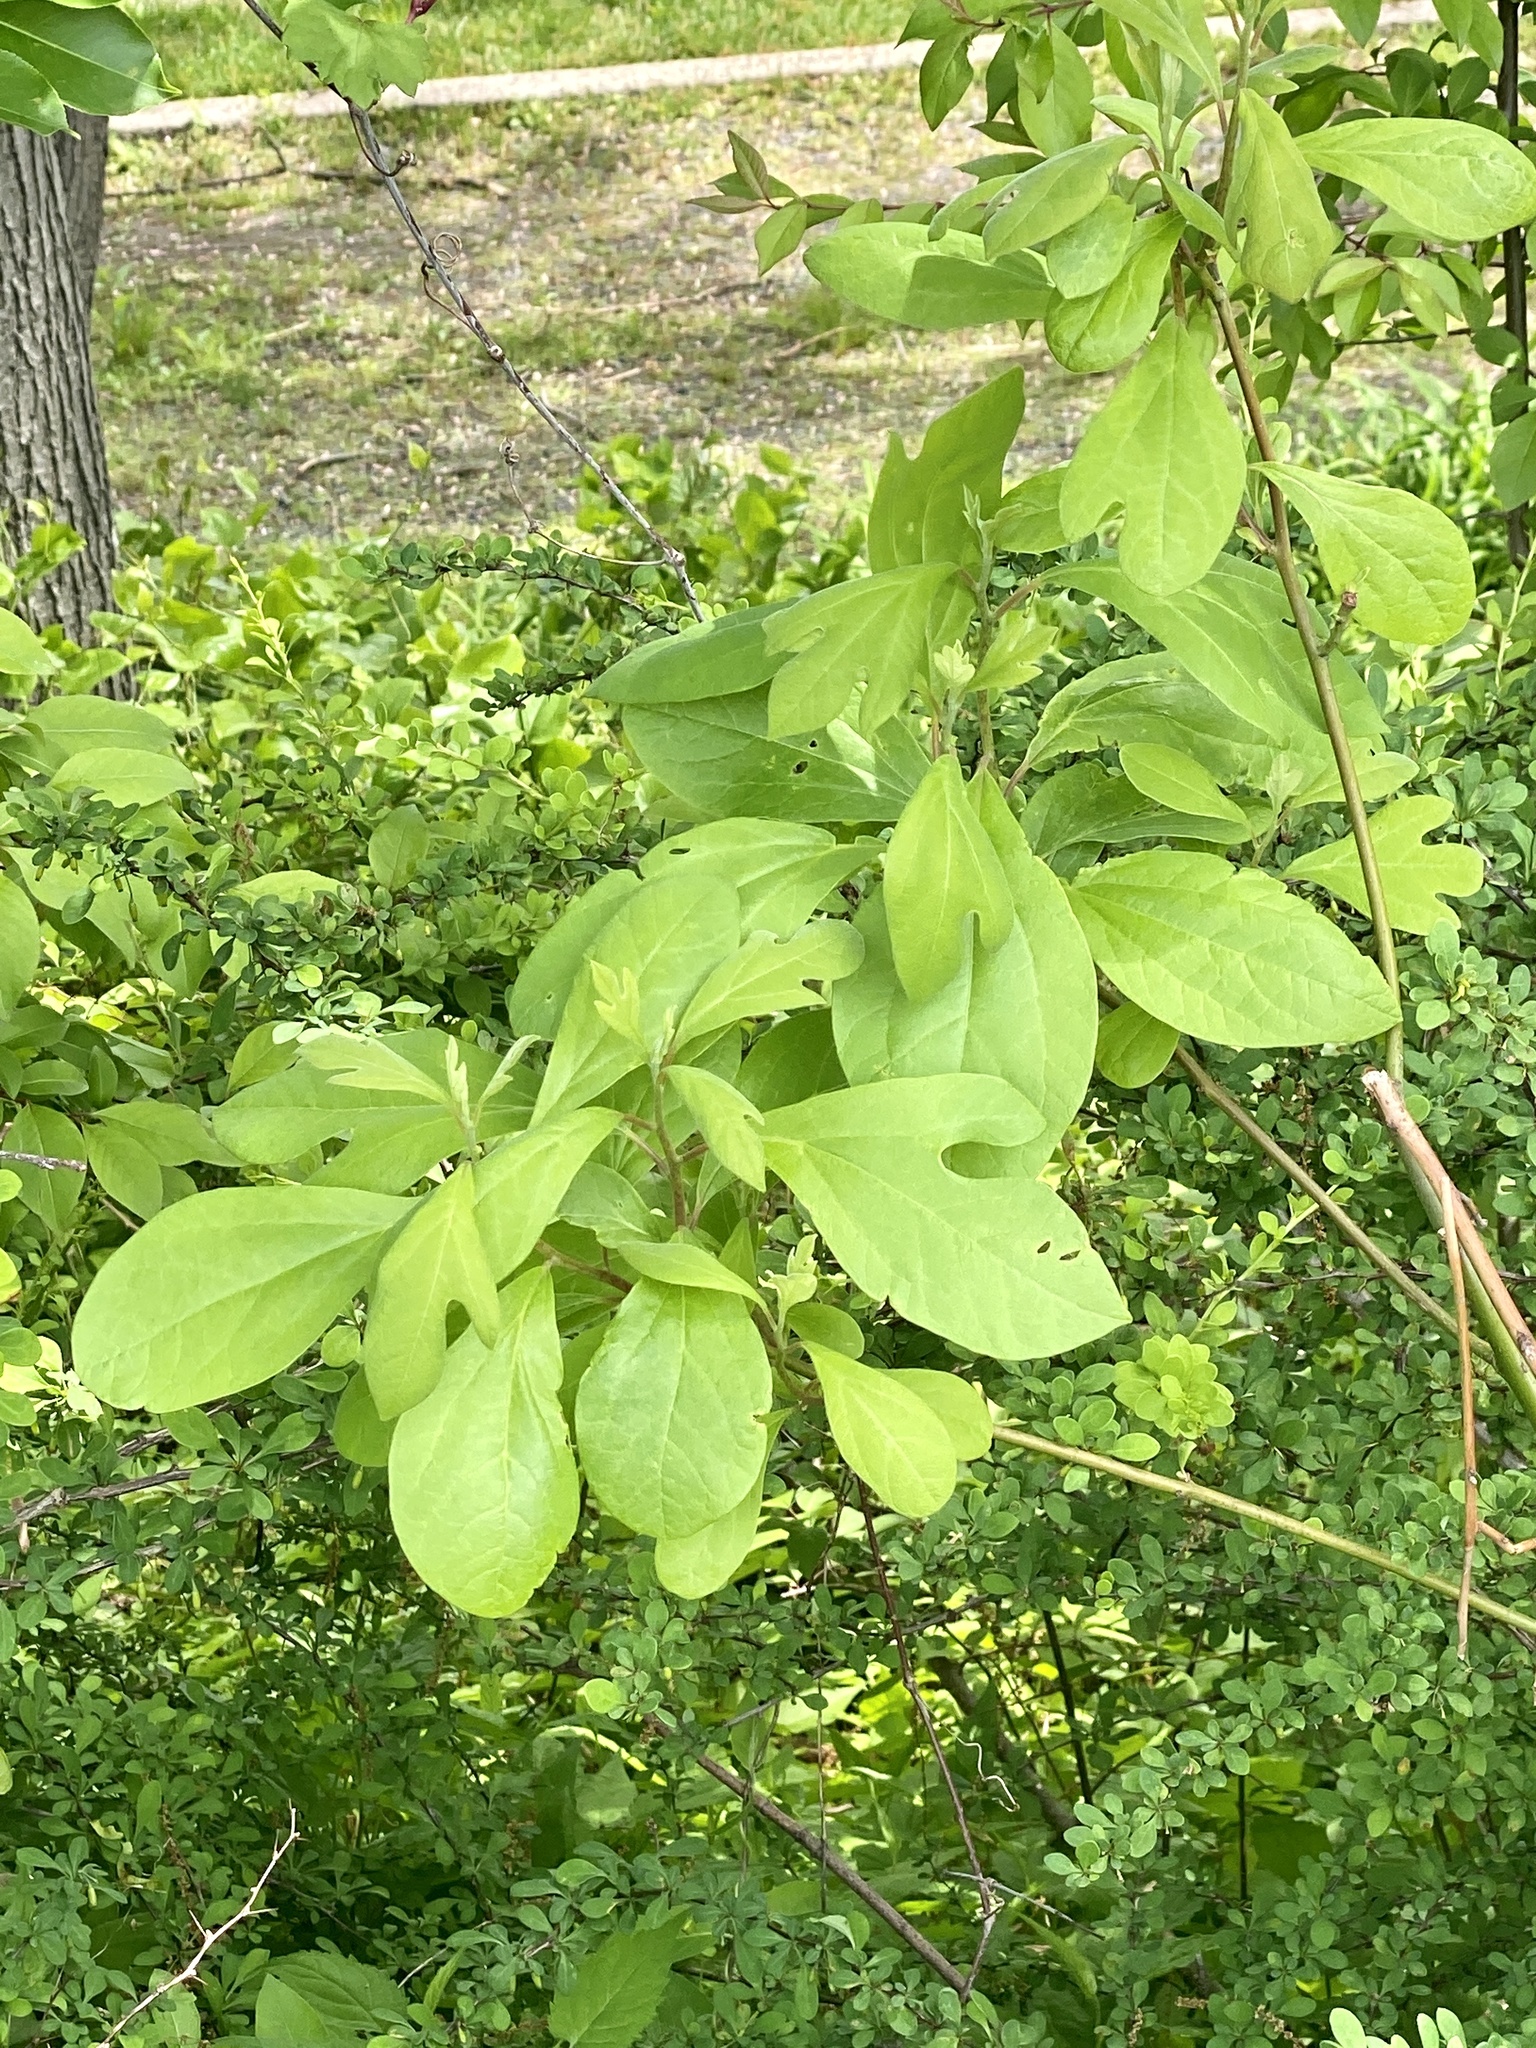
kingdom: Plantae
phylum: Tracheophyta
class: Magnoliopsida
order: Laurales
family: Lauraceae
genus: Sassafras
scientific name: Sassafras albidum
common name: Sassafras
